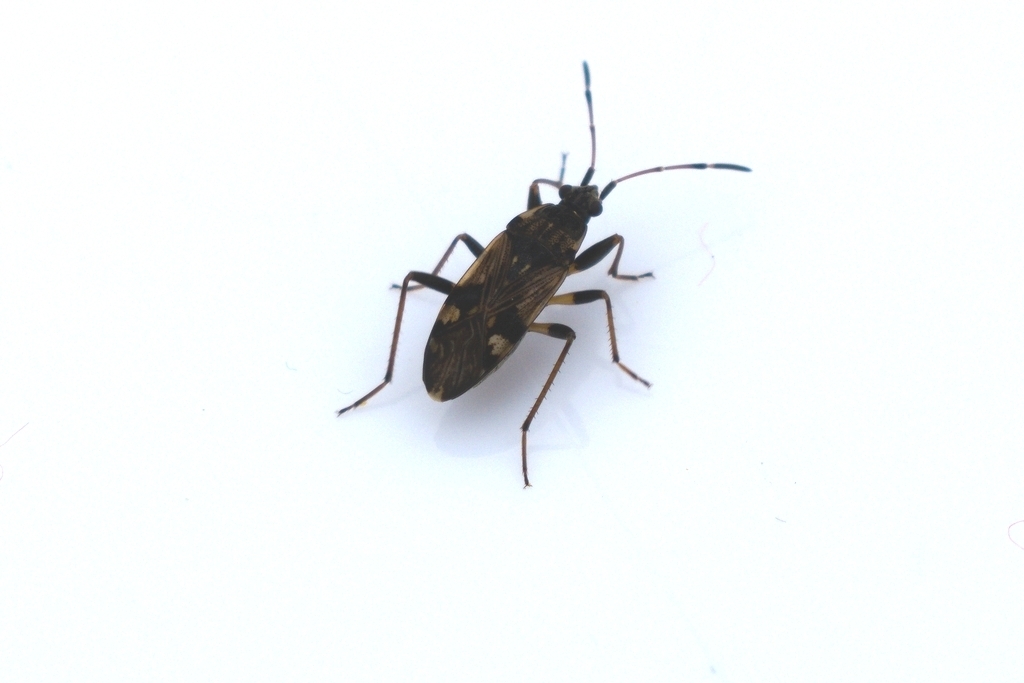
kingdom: Animalia
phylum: Arthropoda
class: Insecta
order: Hemiptera
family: Rhyparochromidae
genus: Beosus
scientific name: Beosus maritimus
